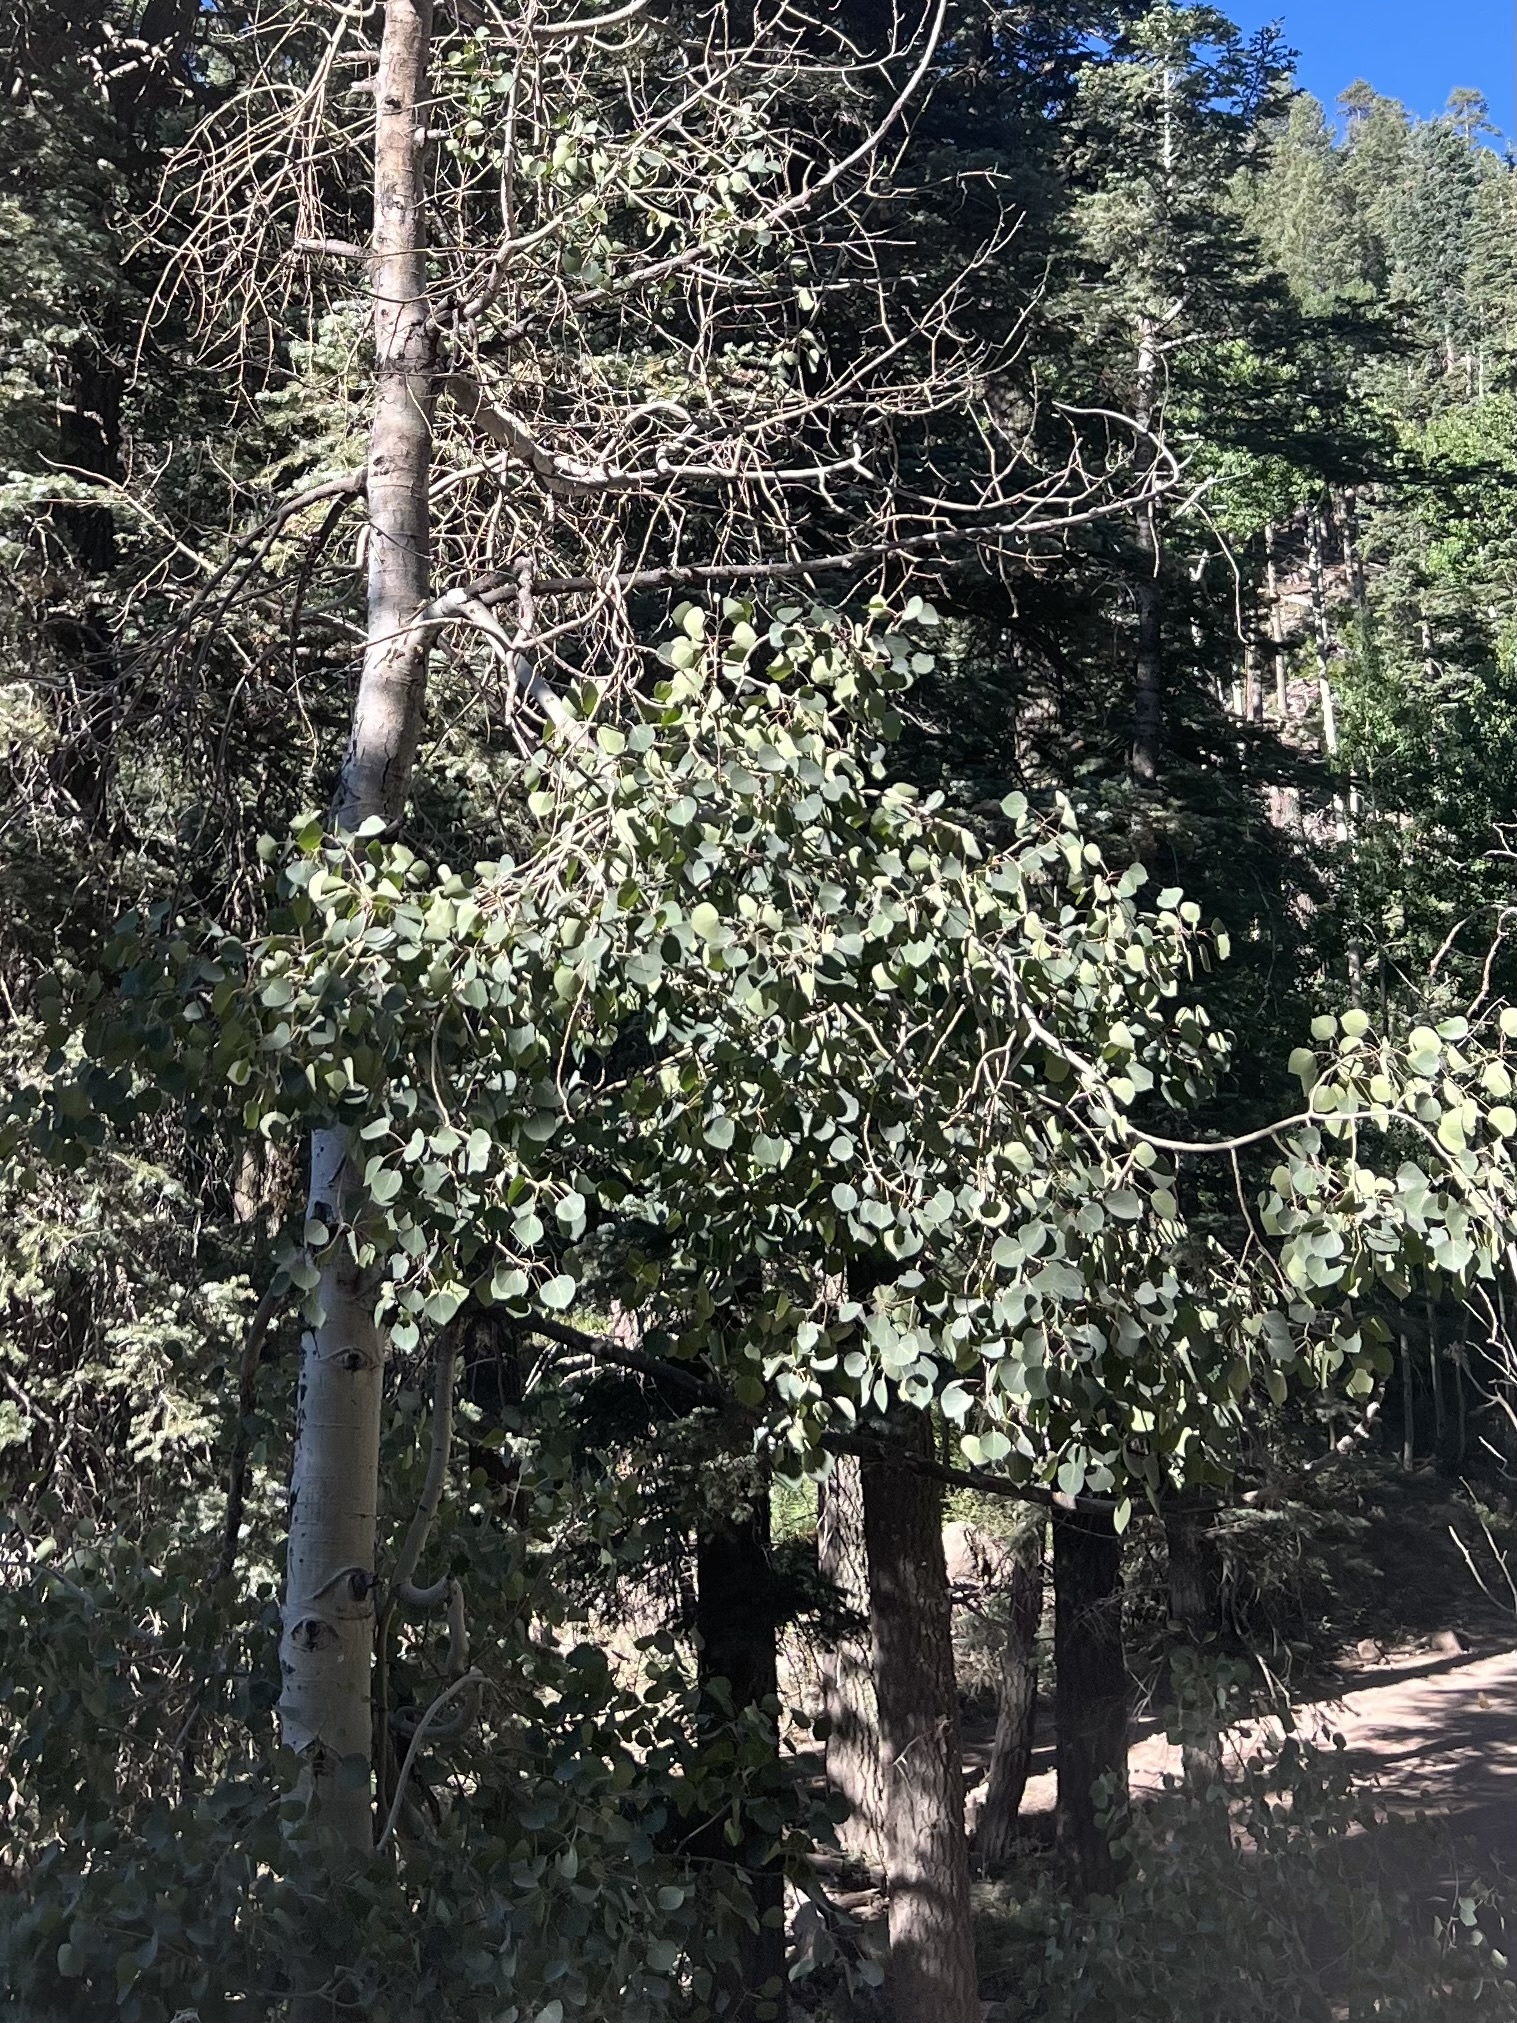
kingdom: Plantae
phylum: Tracheophyta
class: Magnoliopsida
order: Malpighiales
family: Salicaceae
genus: Populus
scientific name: Populus tremuloides
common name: Quaking aspen
